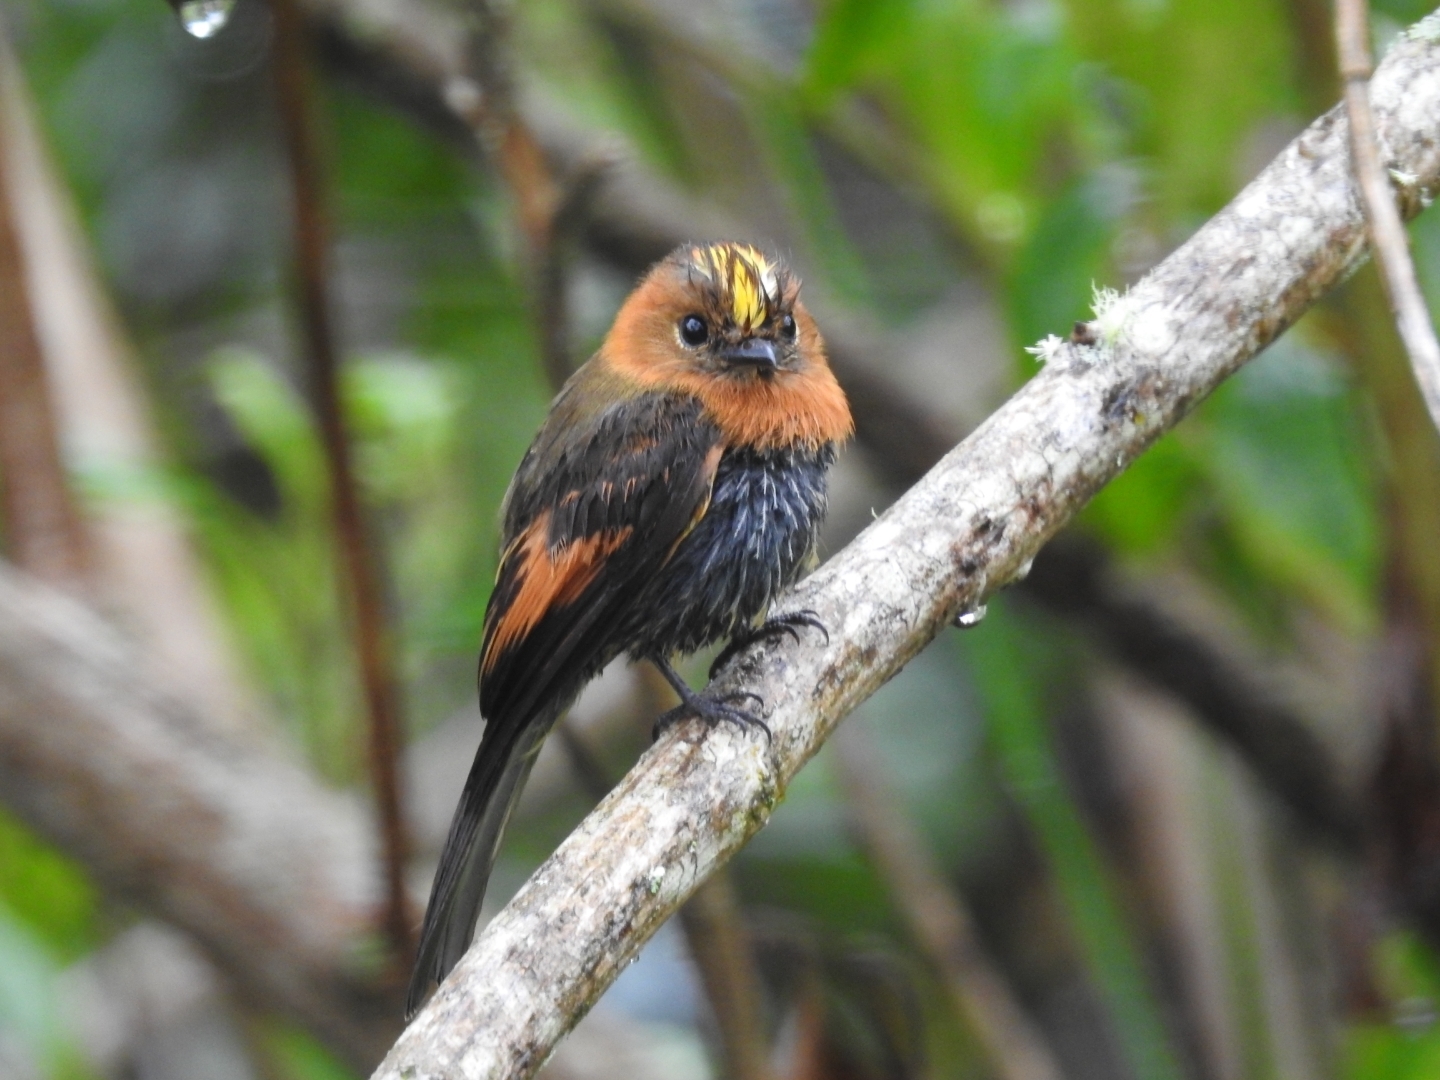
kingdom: Animalia
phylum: Chordata
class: Aves
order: Passeriformes
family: Tyrannidae
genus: Pyrrhomyias
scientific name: Pyrrhomyias cinnamomeus
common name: Cinnamon flycatcher
